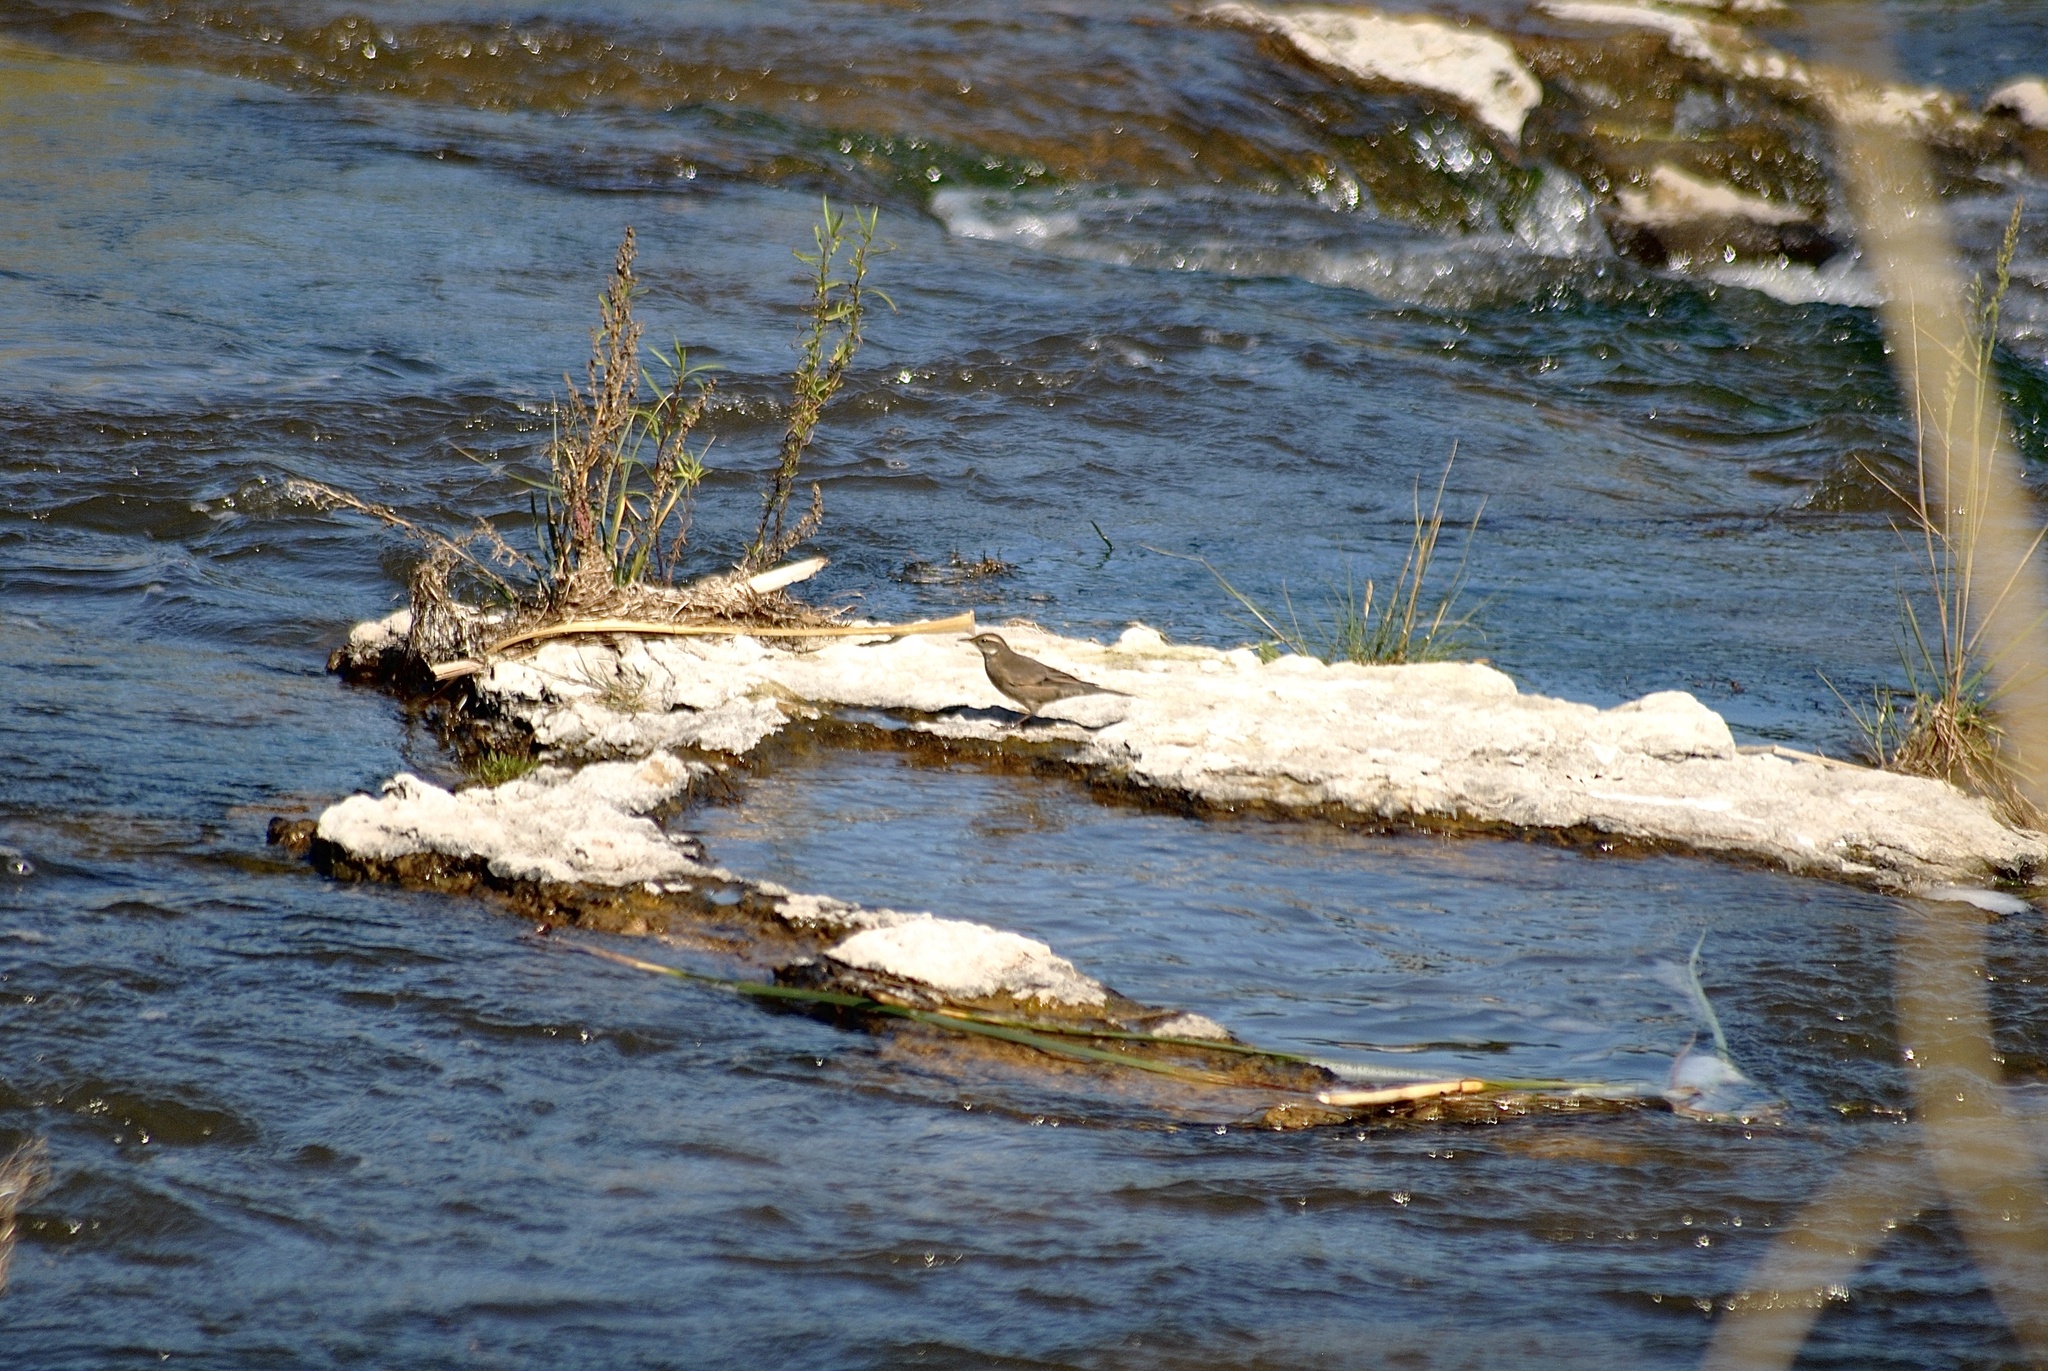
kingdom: Animalia
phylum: Chordata
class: Aves
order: Passeriformes
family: Furnariidae
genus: Cinclodes
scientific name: Cinclodes fuscus
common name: Buff-winged cinclodes
